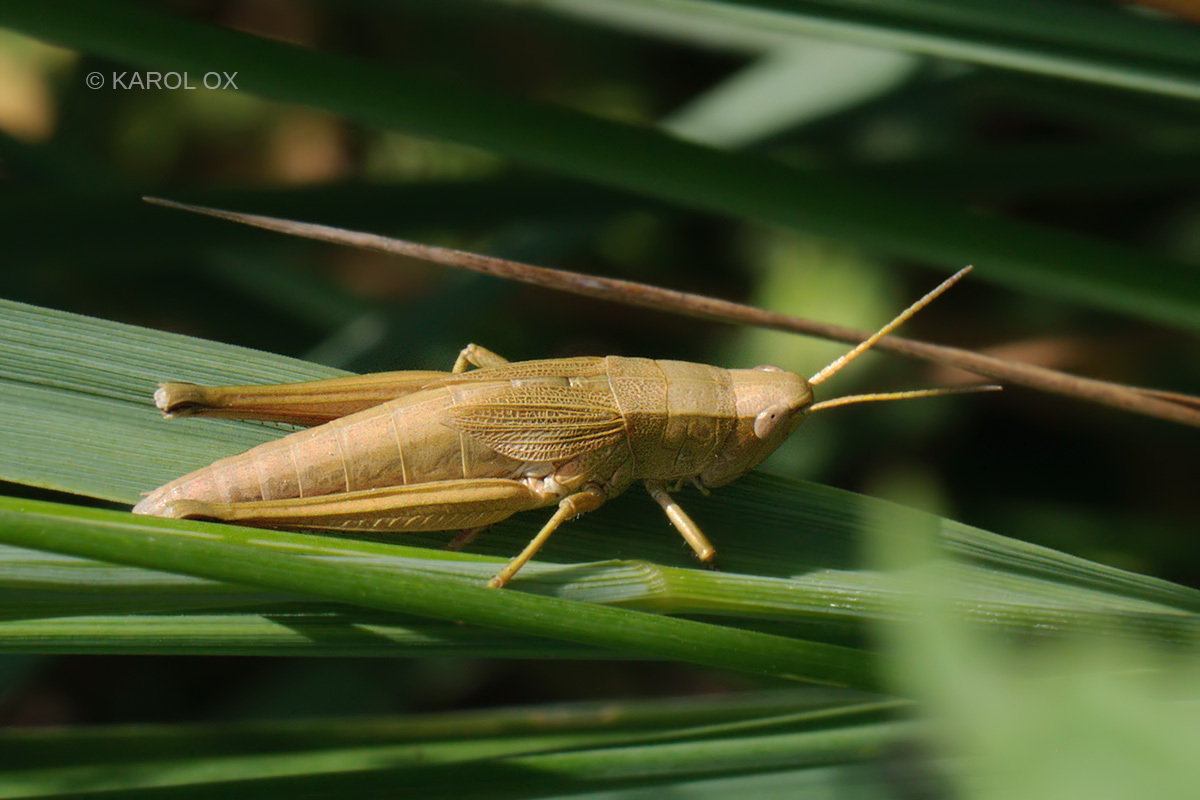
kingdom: Animalia
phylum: Arthropoda
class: Insecta
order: Orthoptera
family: Acrididae
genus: Chrysochraon
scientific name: Chrysochraon dispar
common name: Large gold grasshopper
